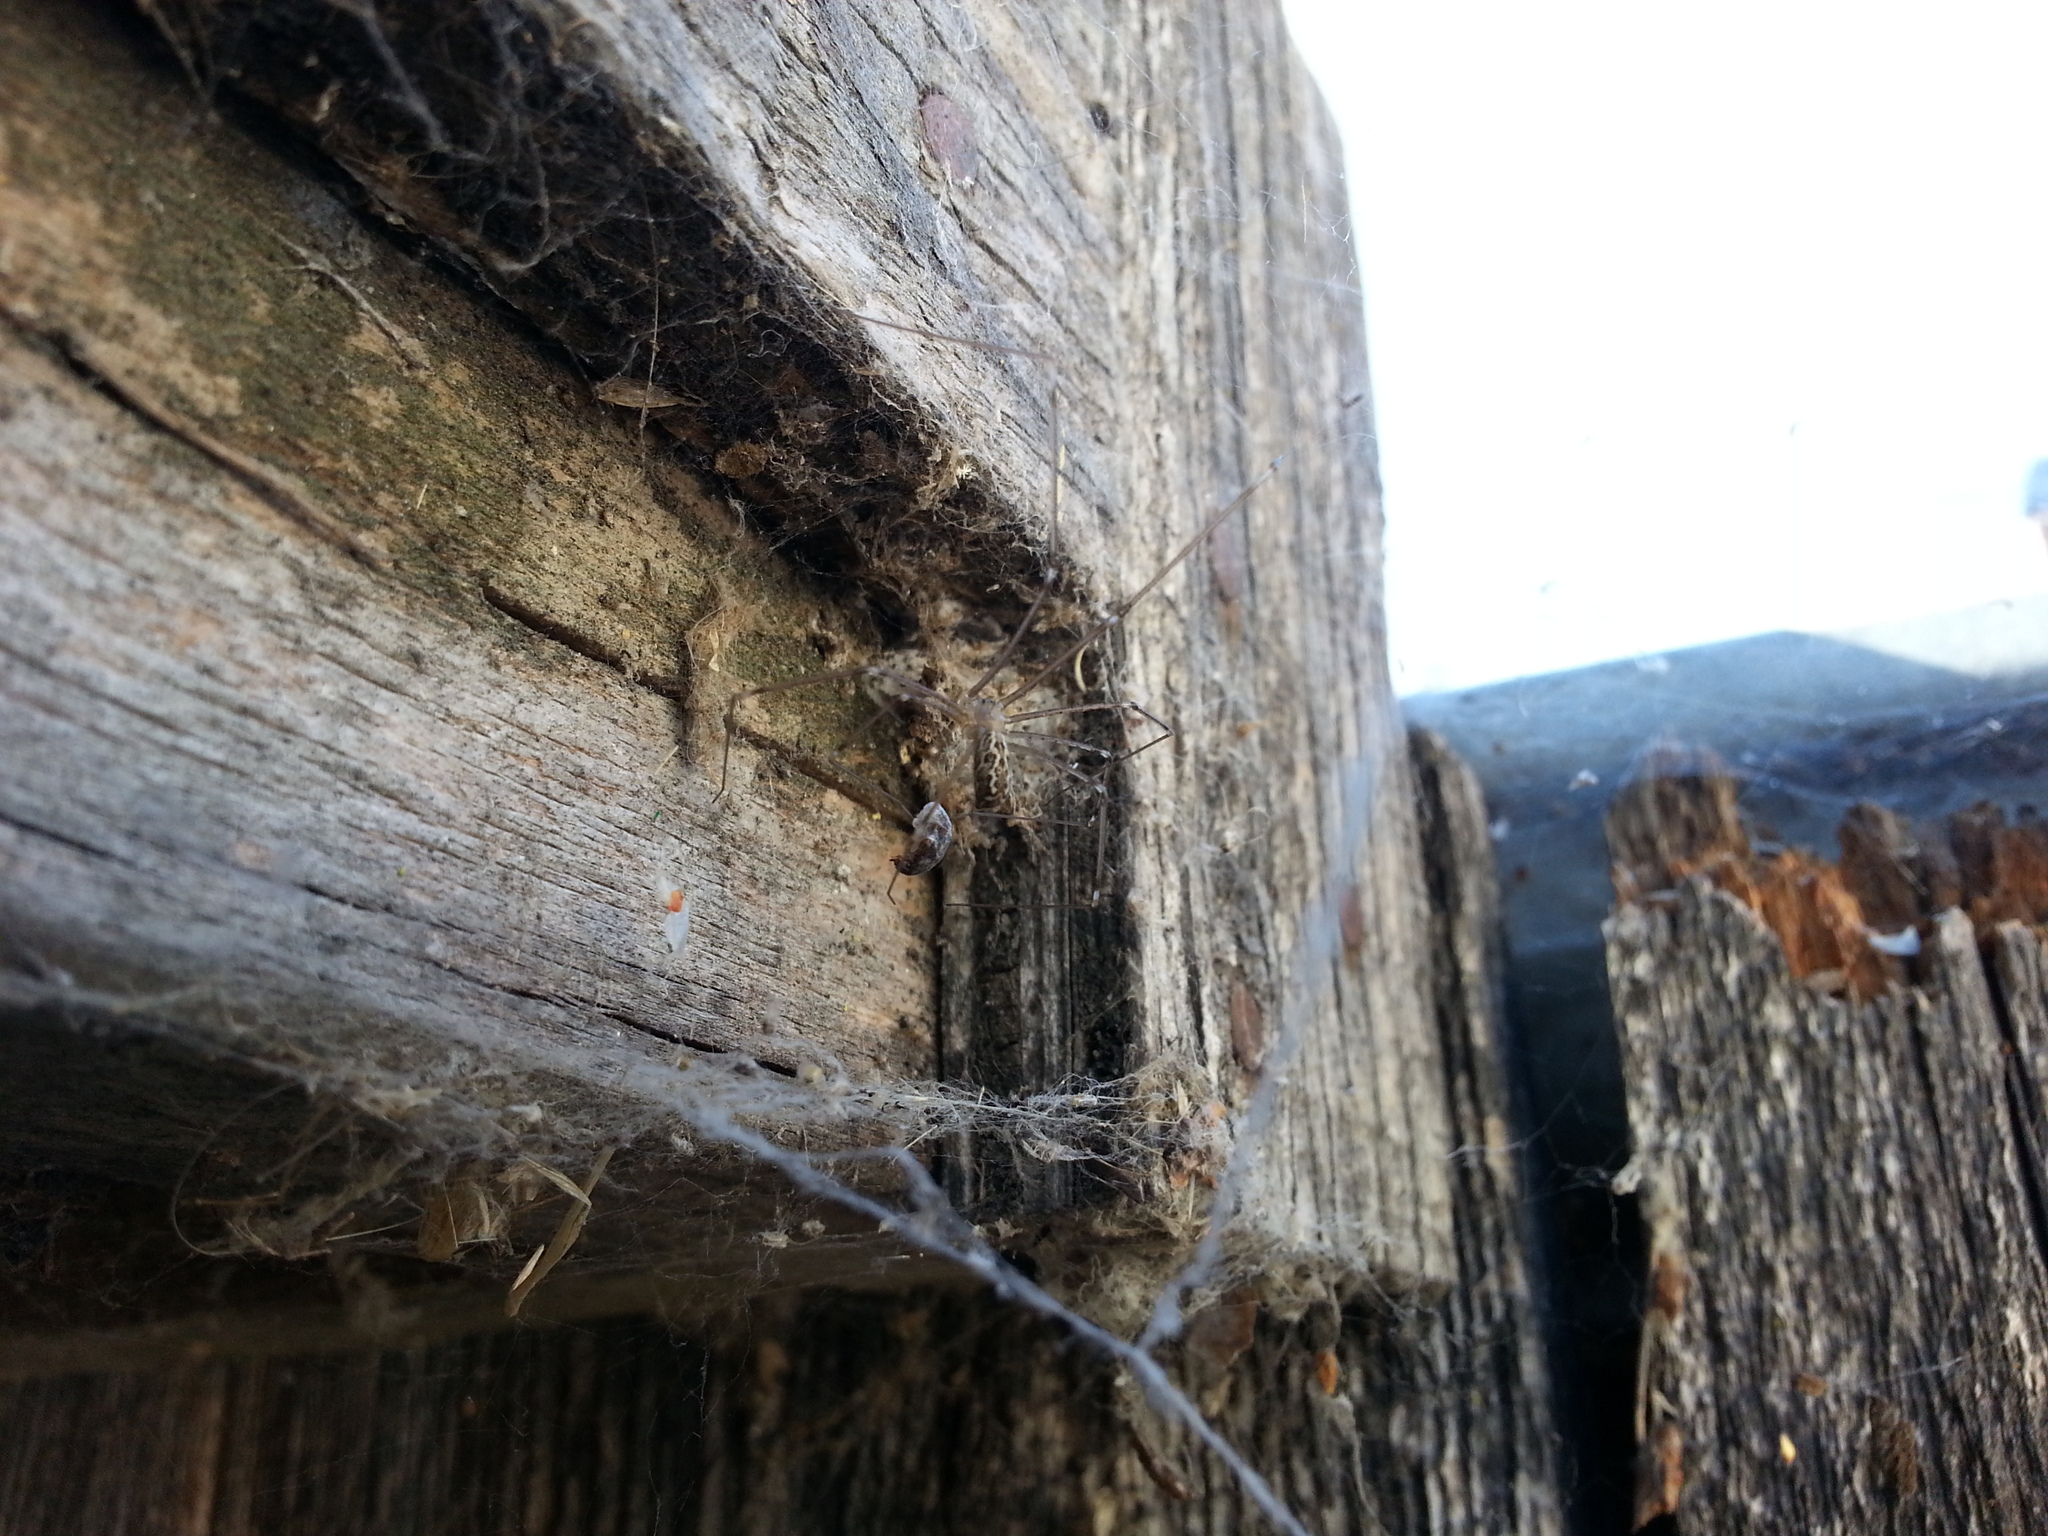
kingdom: Animalia
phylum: Arthropoda
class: Arachnida
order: Araneae
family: Pholcidae
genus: Holocnemus
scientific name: Holocnemus pluchei
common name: Marbled cellar spider
